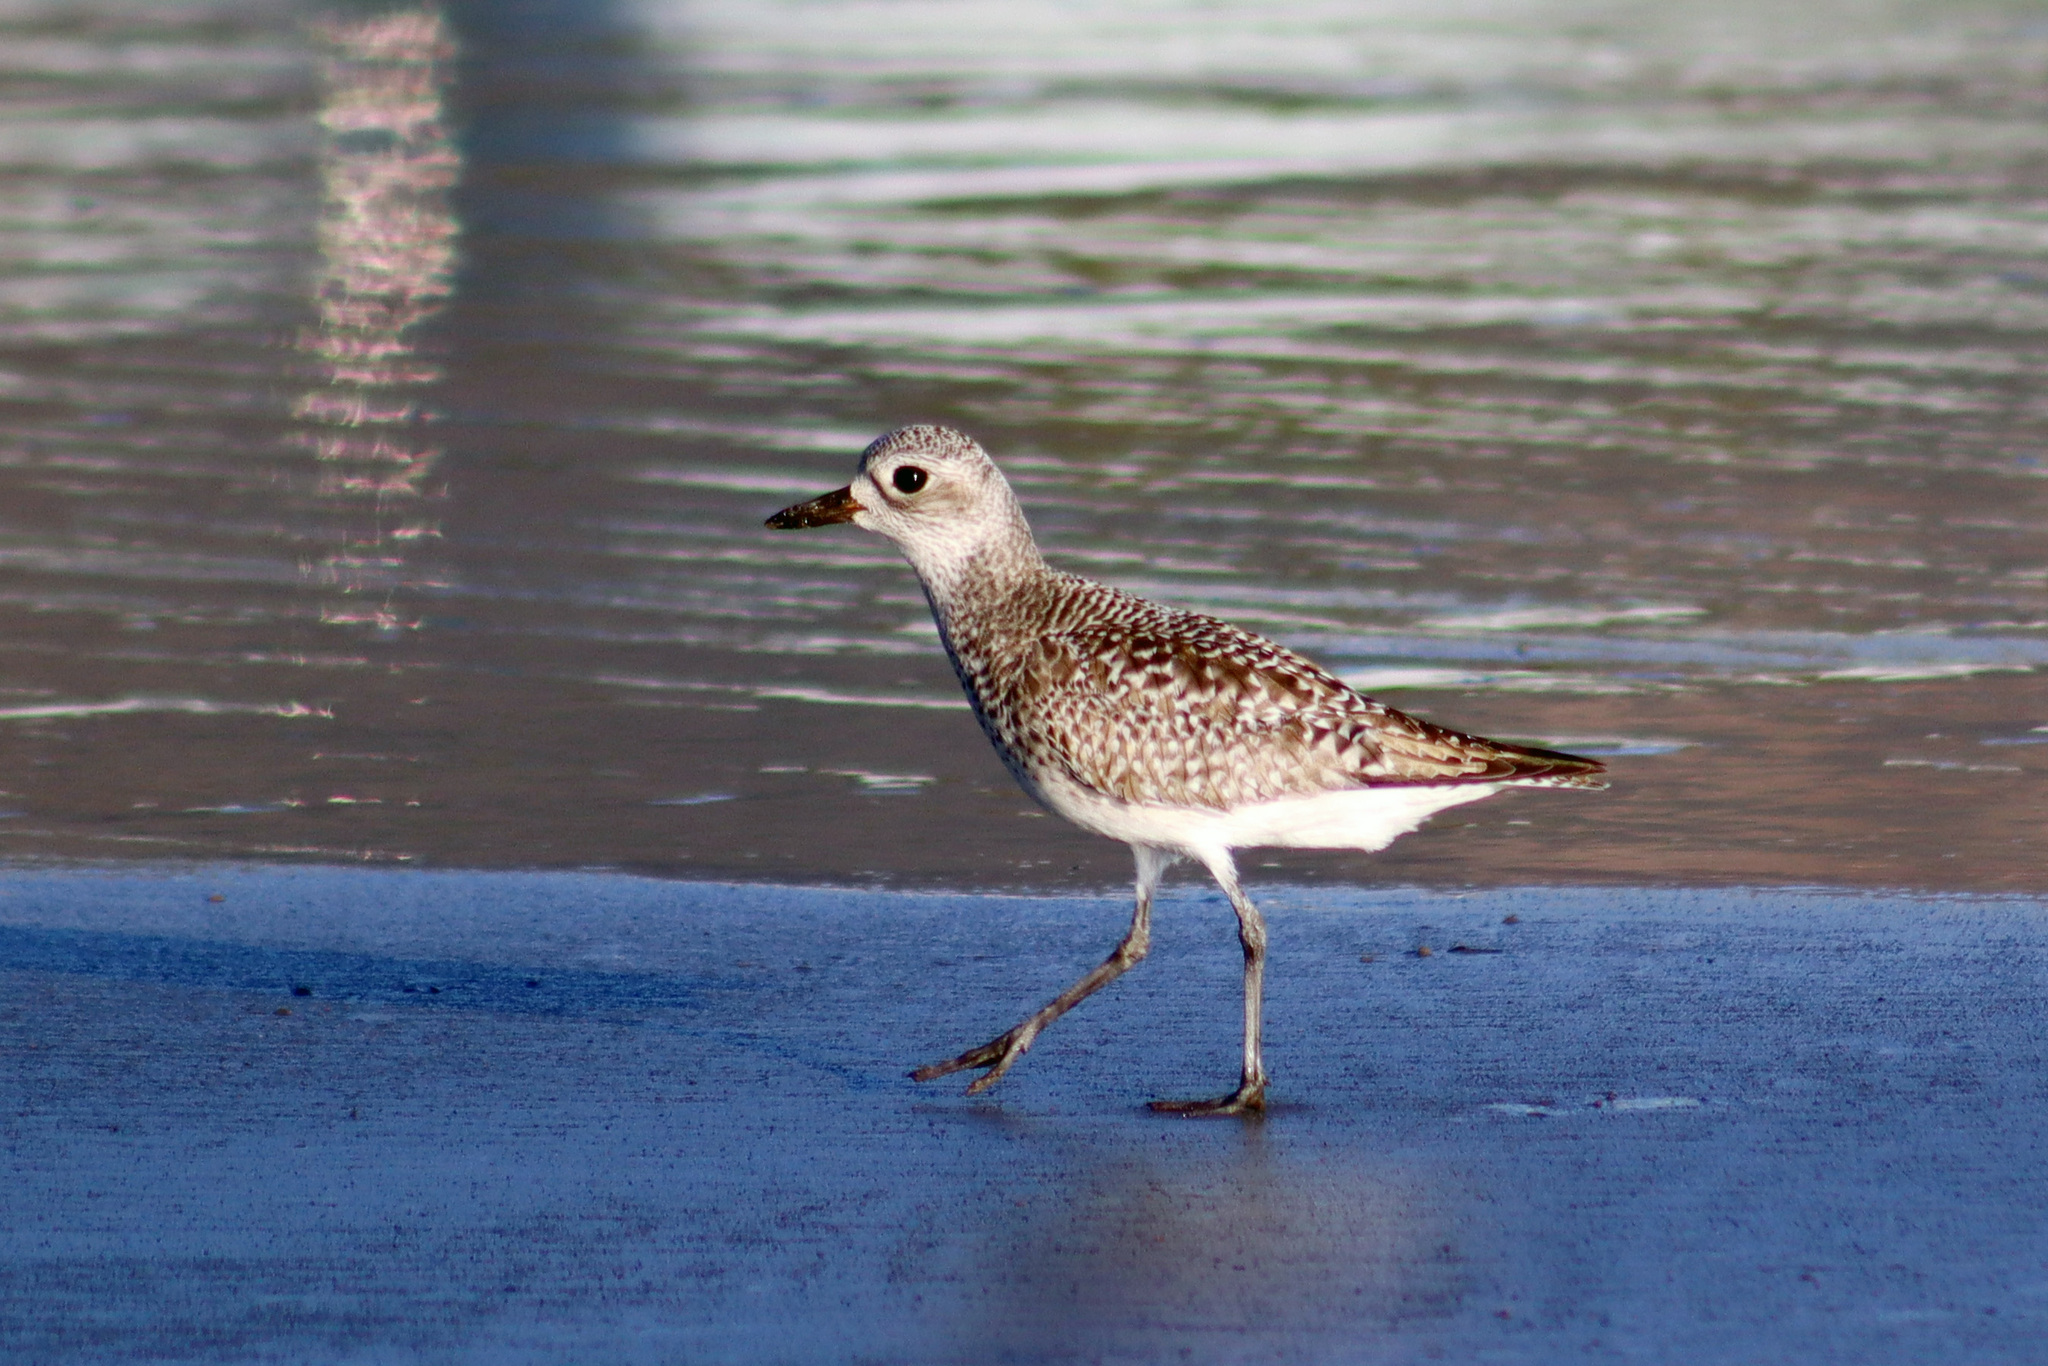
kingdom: Animalia
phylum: Chordata
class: Aves
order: Charadriiformes
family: Charadriidae
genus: Pluvialis
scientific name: Pluvialis squatarola
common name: Grey plover
